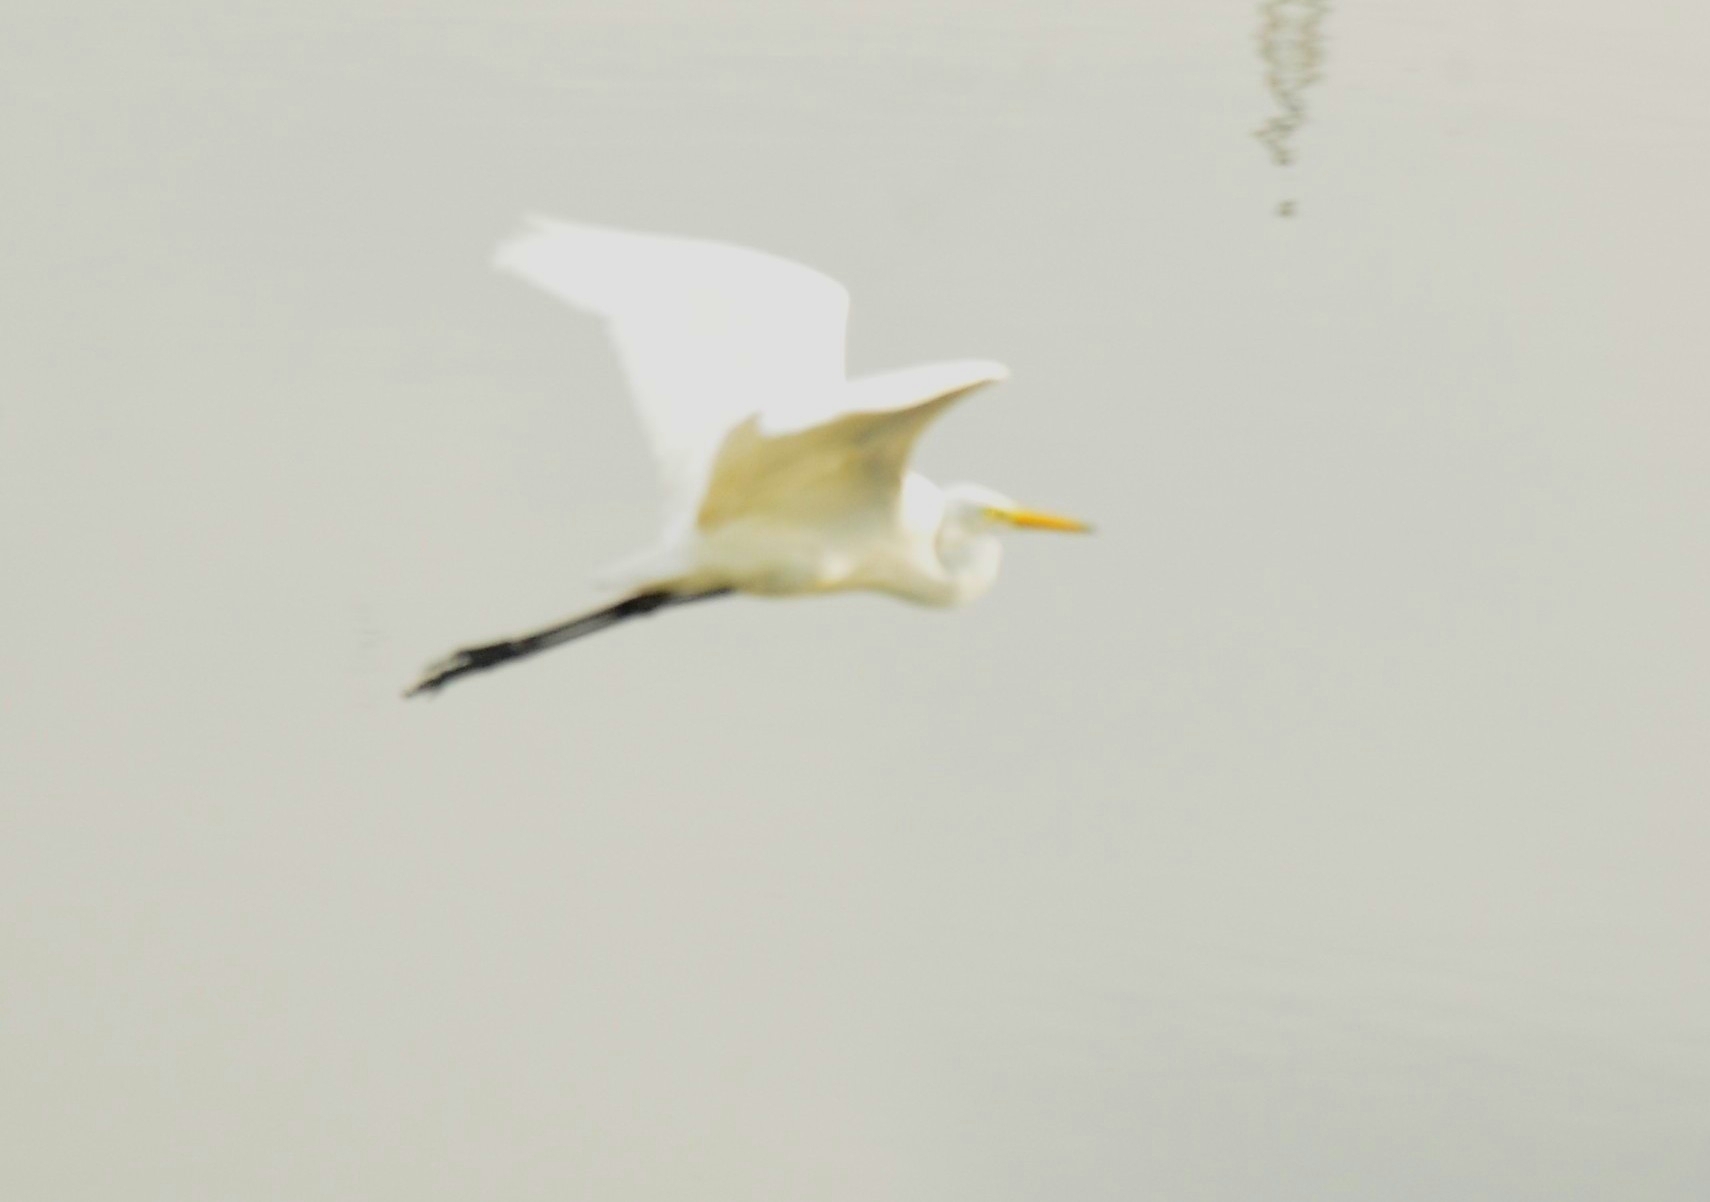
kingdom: Animalia
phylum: Chordata
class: Aves
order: Pelecaniformes
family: Ardeidae
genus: Ardea
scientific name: Ardea alba
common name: Great egret
